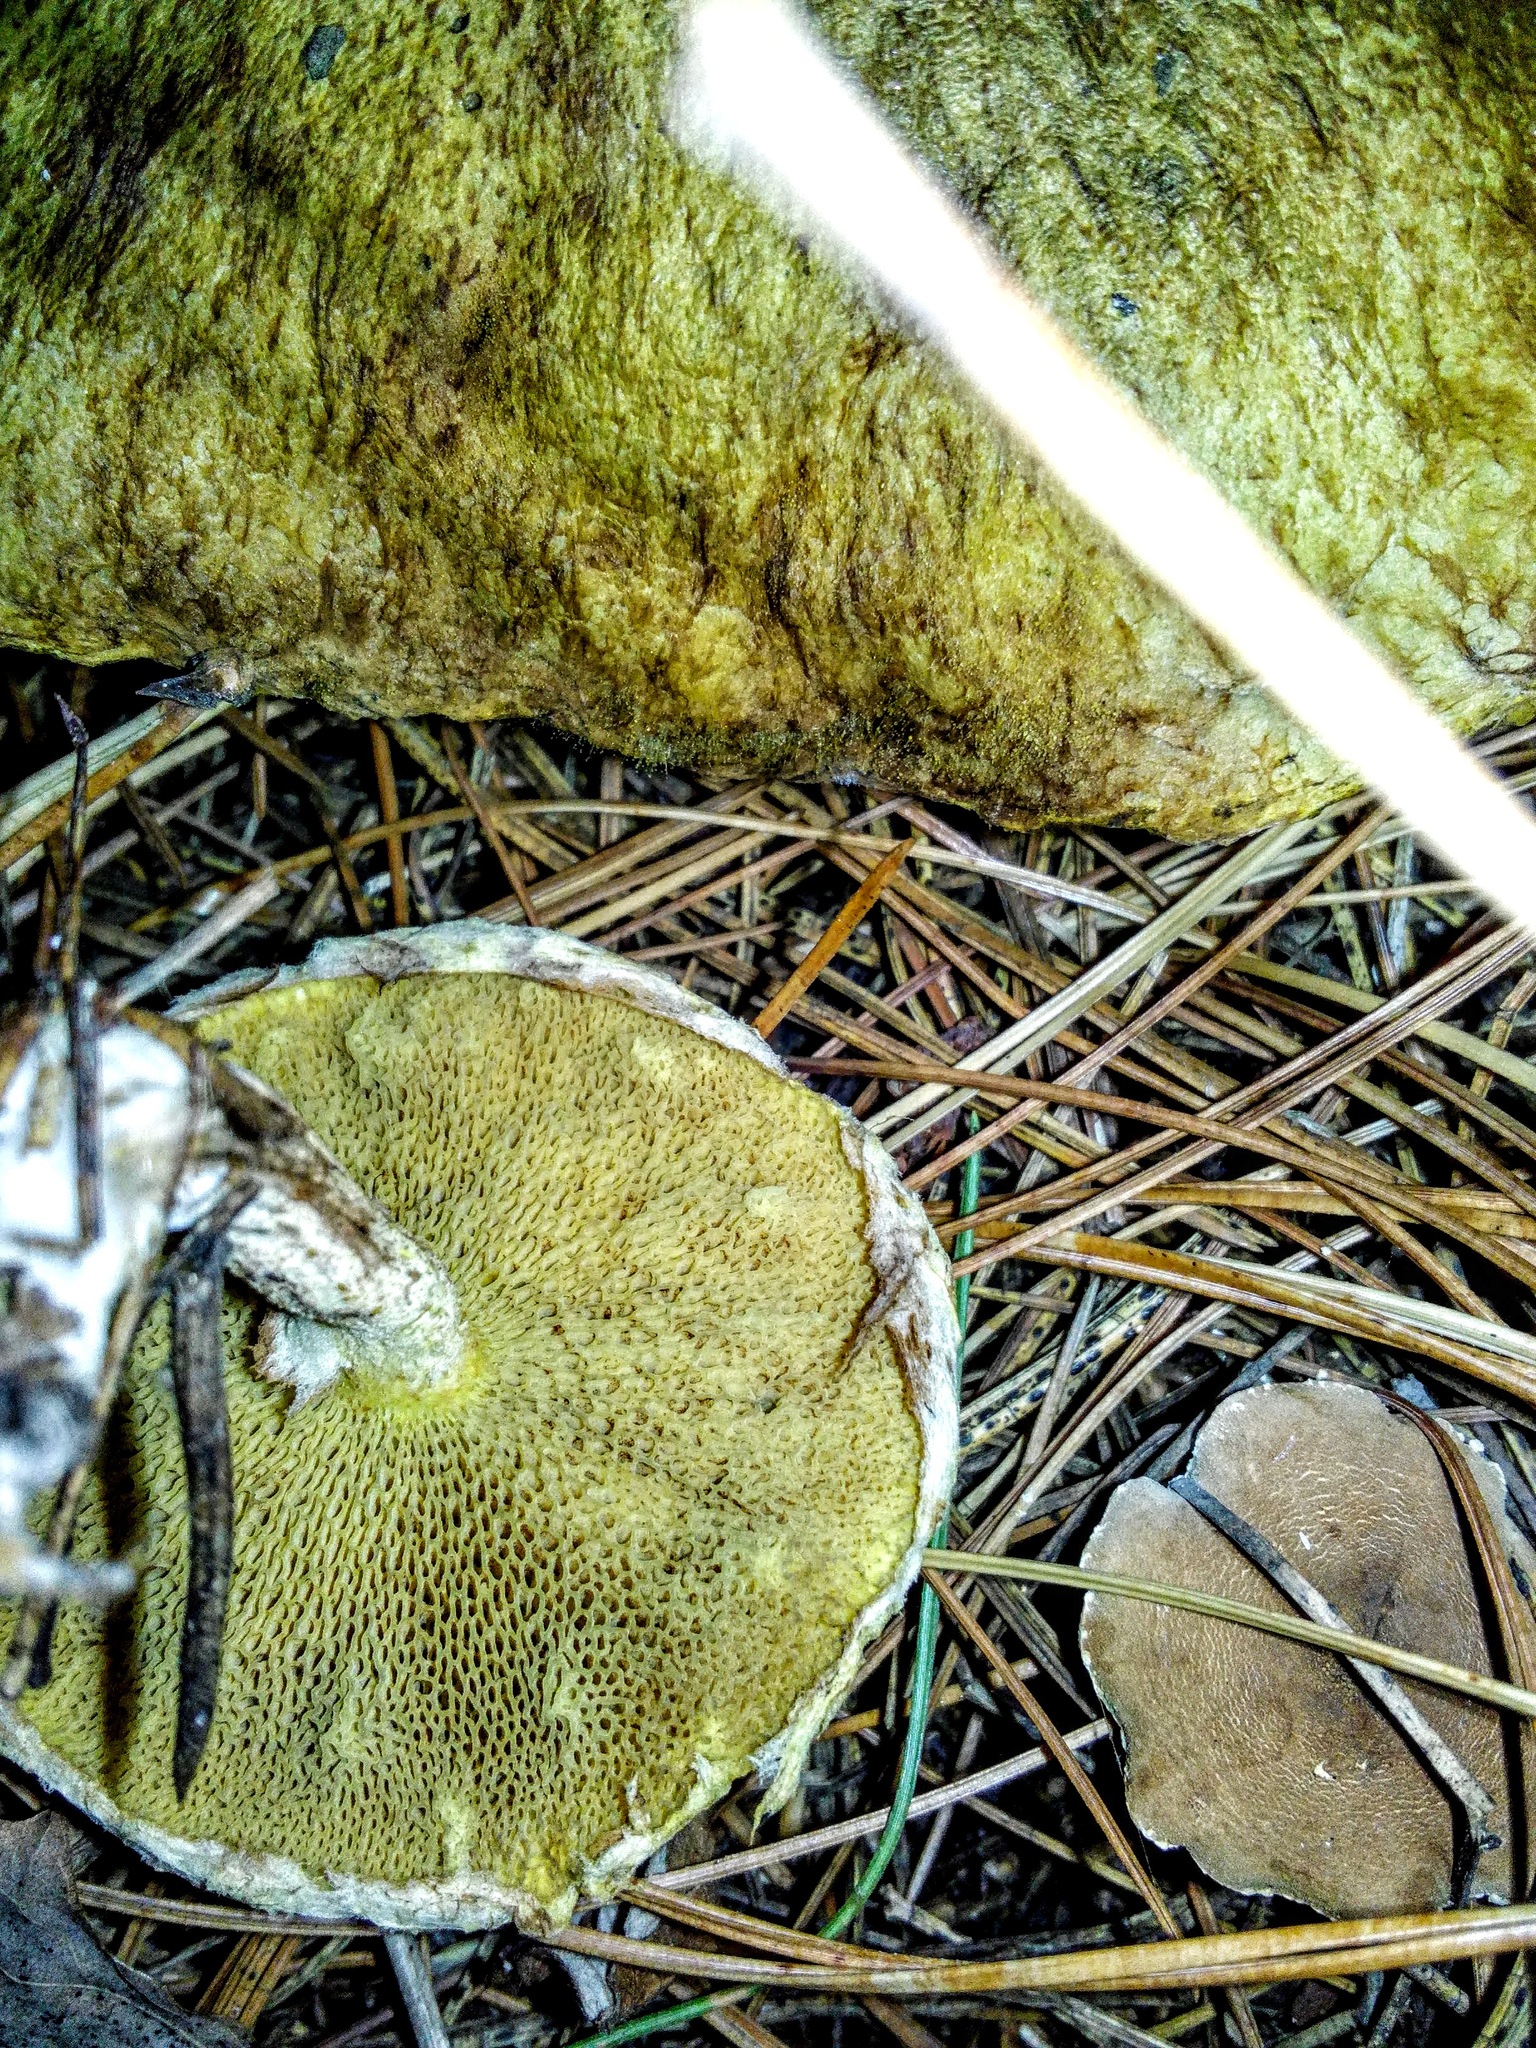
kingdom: Fungi
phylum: Basidiomycota
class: Agaricomycetes
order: Boletales
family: Suillaceae
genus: Suillus
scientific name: Suillus americanus
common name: Chicken fat mushroom
